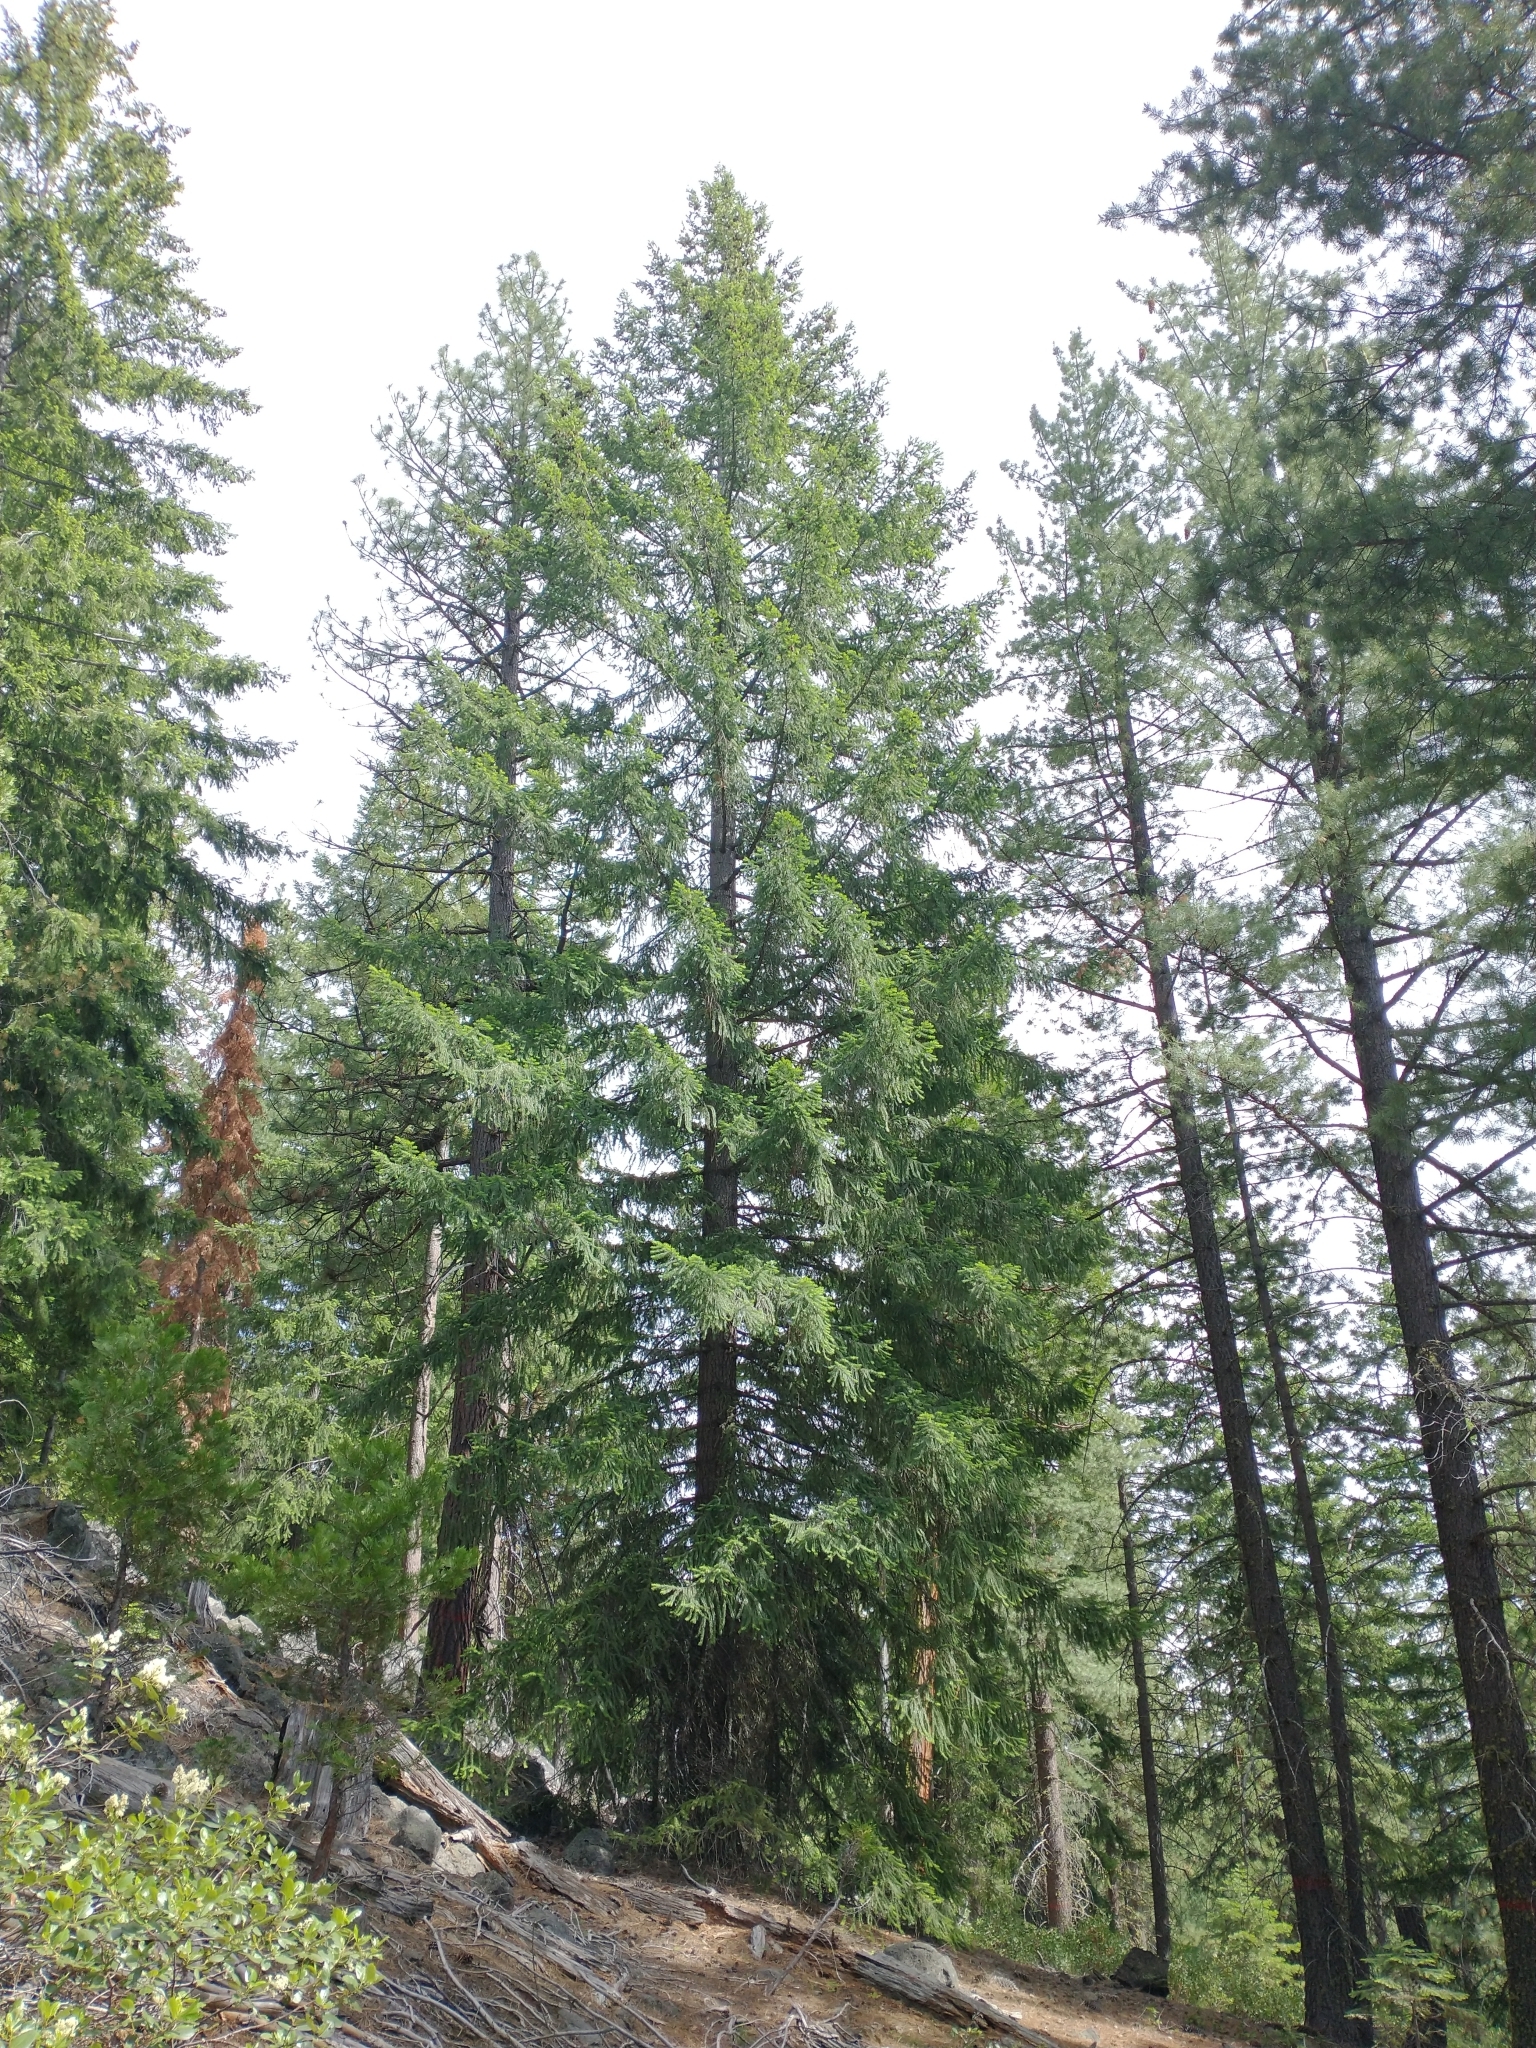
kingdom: Plantae
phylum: Tracheophyta
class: Pinopsida
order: Pinales
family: Pinaceae
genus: Pseudotsuga
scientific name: Pseudotsuga menziesii
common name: Douglas fir
